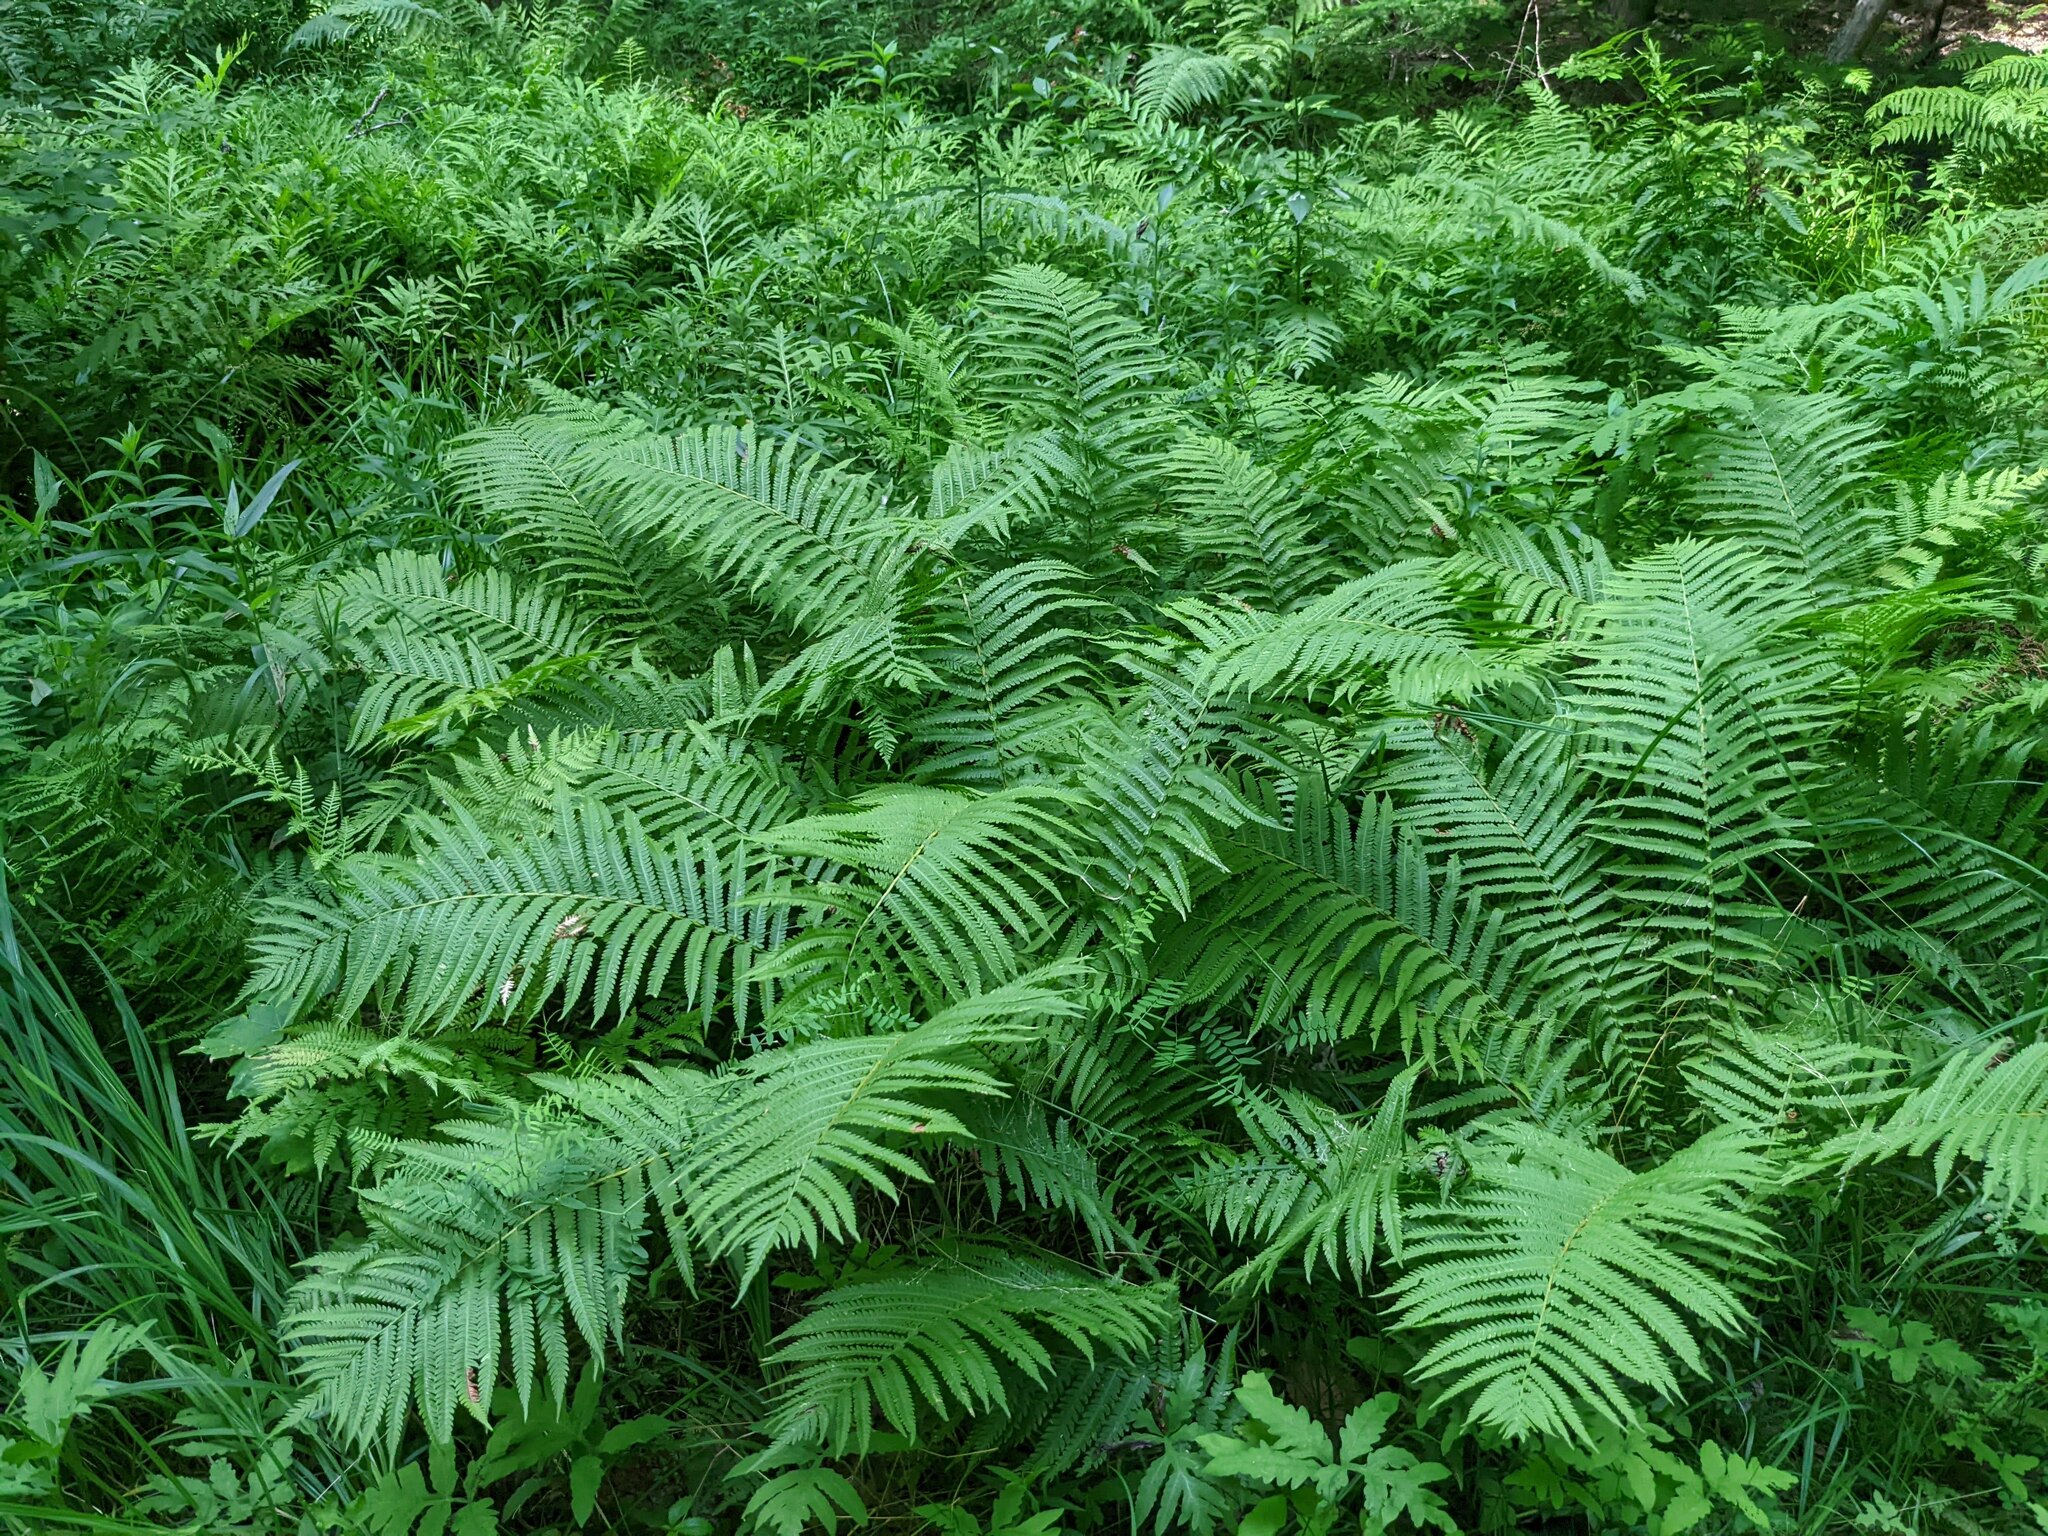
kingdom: Plantae
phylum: Tracheophyta
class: Polypodiopsida
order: Polypodiales
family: Onocleaceae
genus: Matteuccia
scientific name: Matteuccia struthiopteris
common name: Ostrich fern
